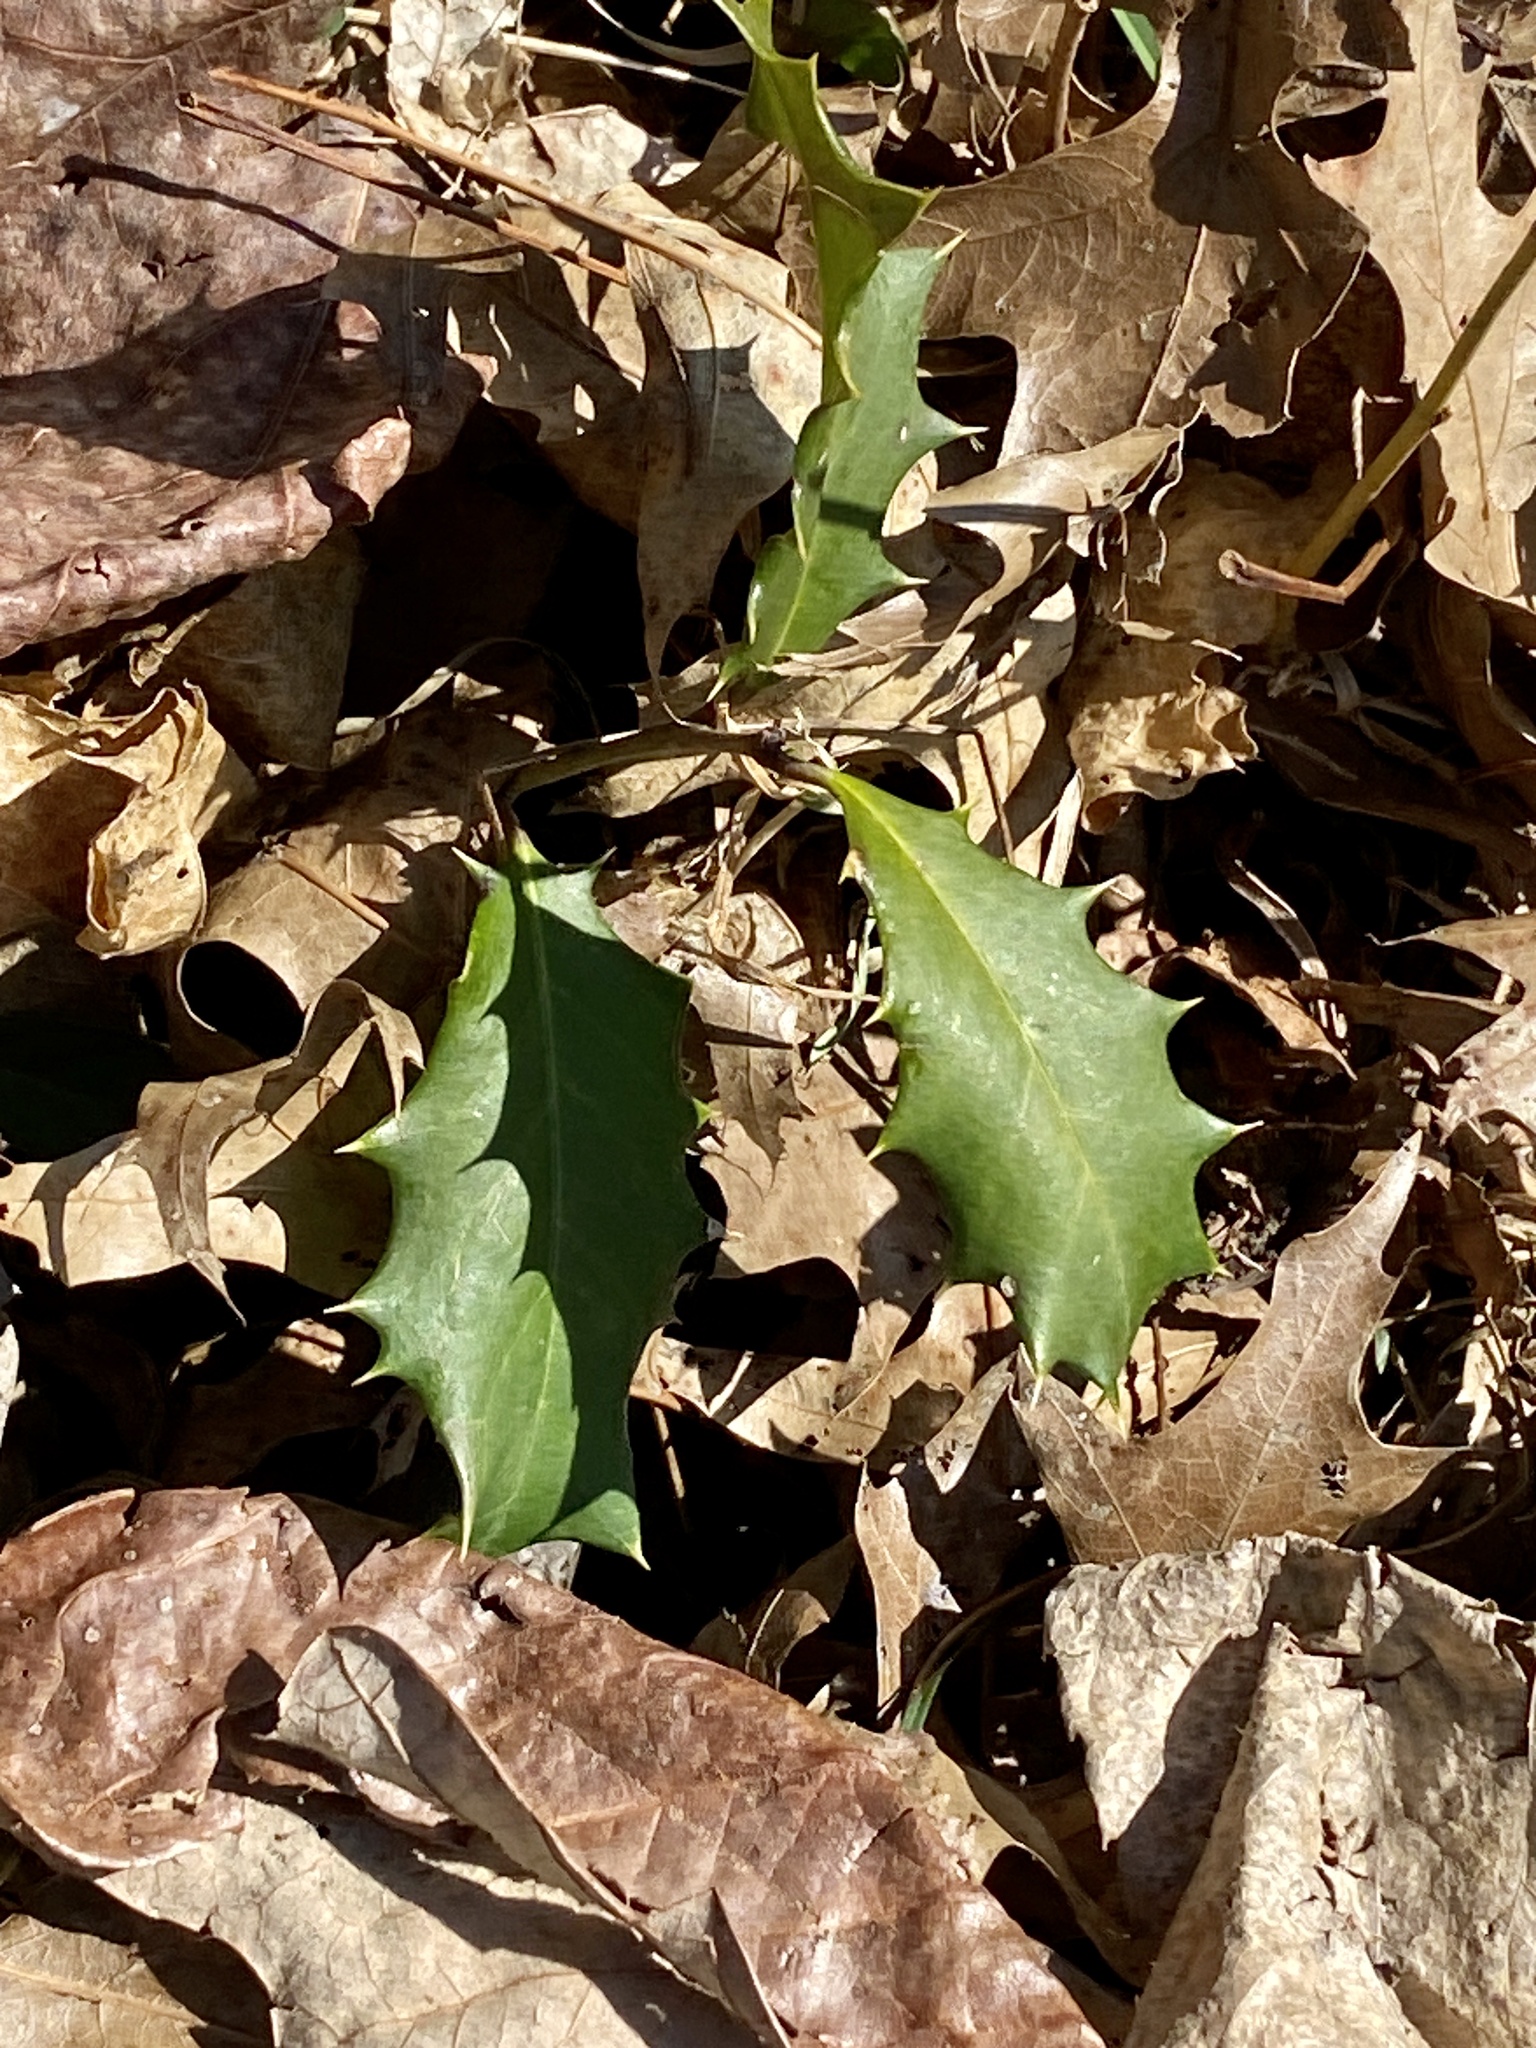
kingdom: Plantae
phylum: Tracheophyta
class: Magnoliopsida
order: Aquifoliales
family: Aquifoliaceae
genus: Ilex
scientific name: Ilex opaca
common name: American holly
